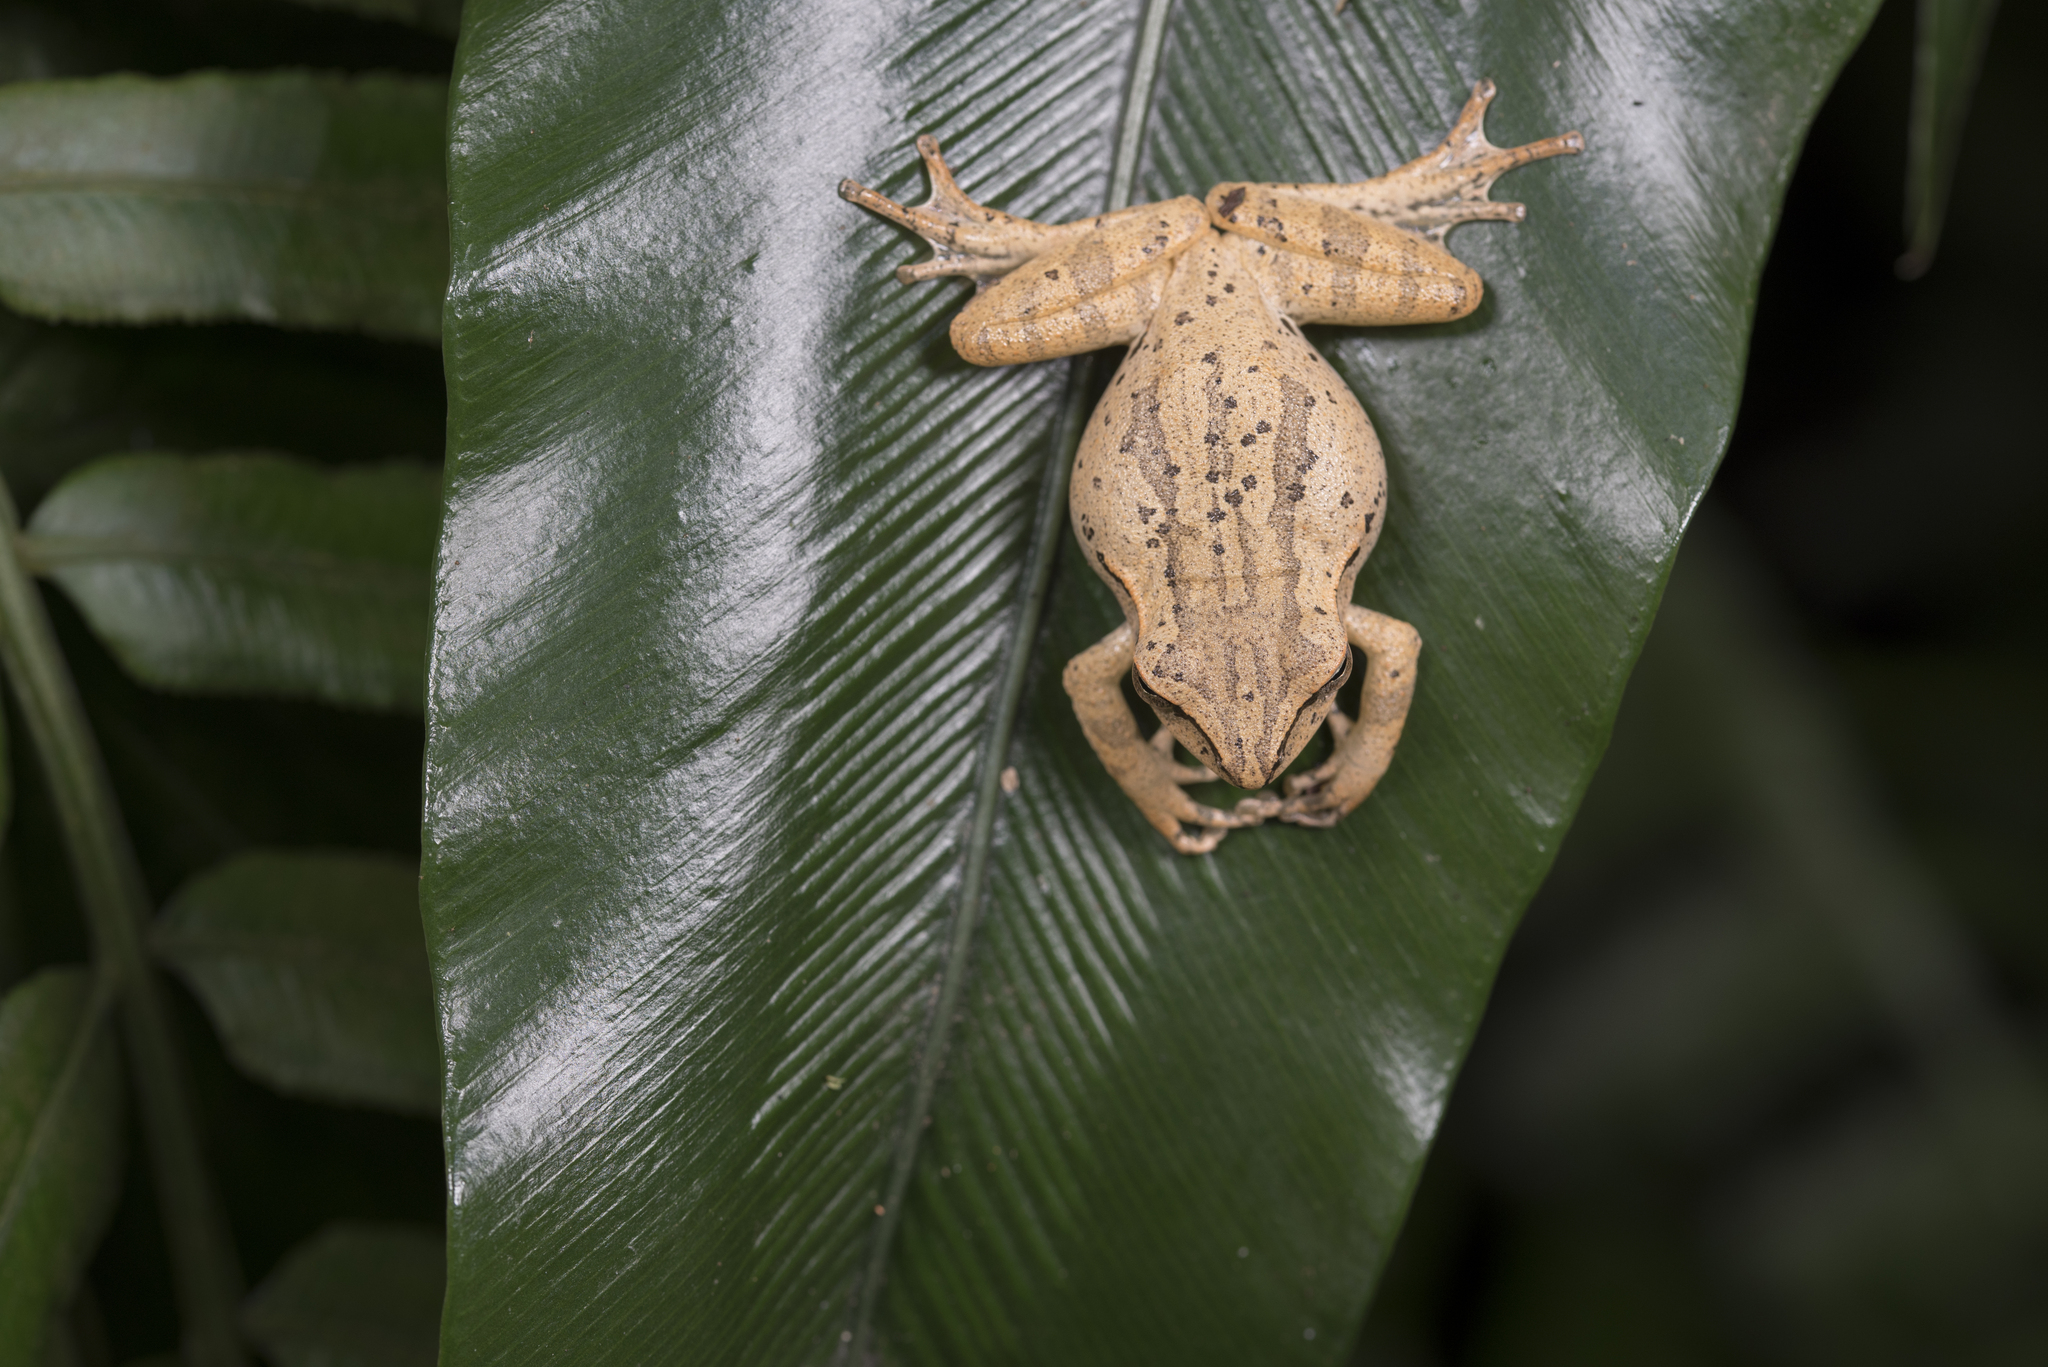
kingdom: Animalia
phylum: Chordata
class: Amphibia
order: Anura
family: Rhacophoridae
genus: Polypedates
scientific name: Polypedates braueri
